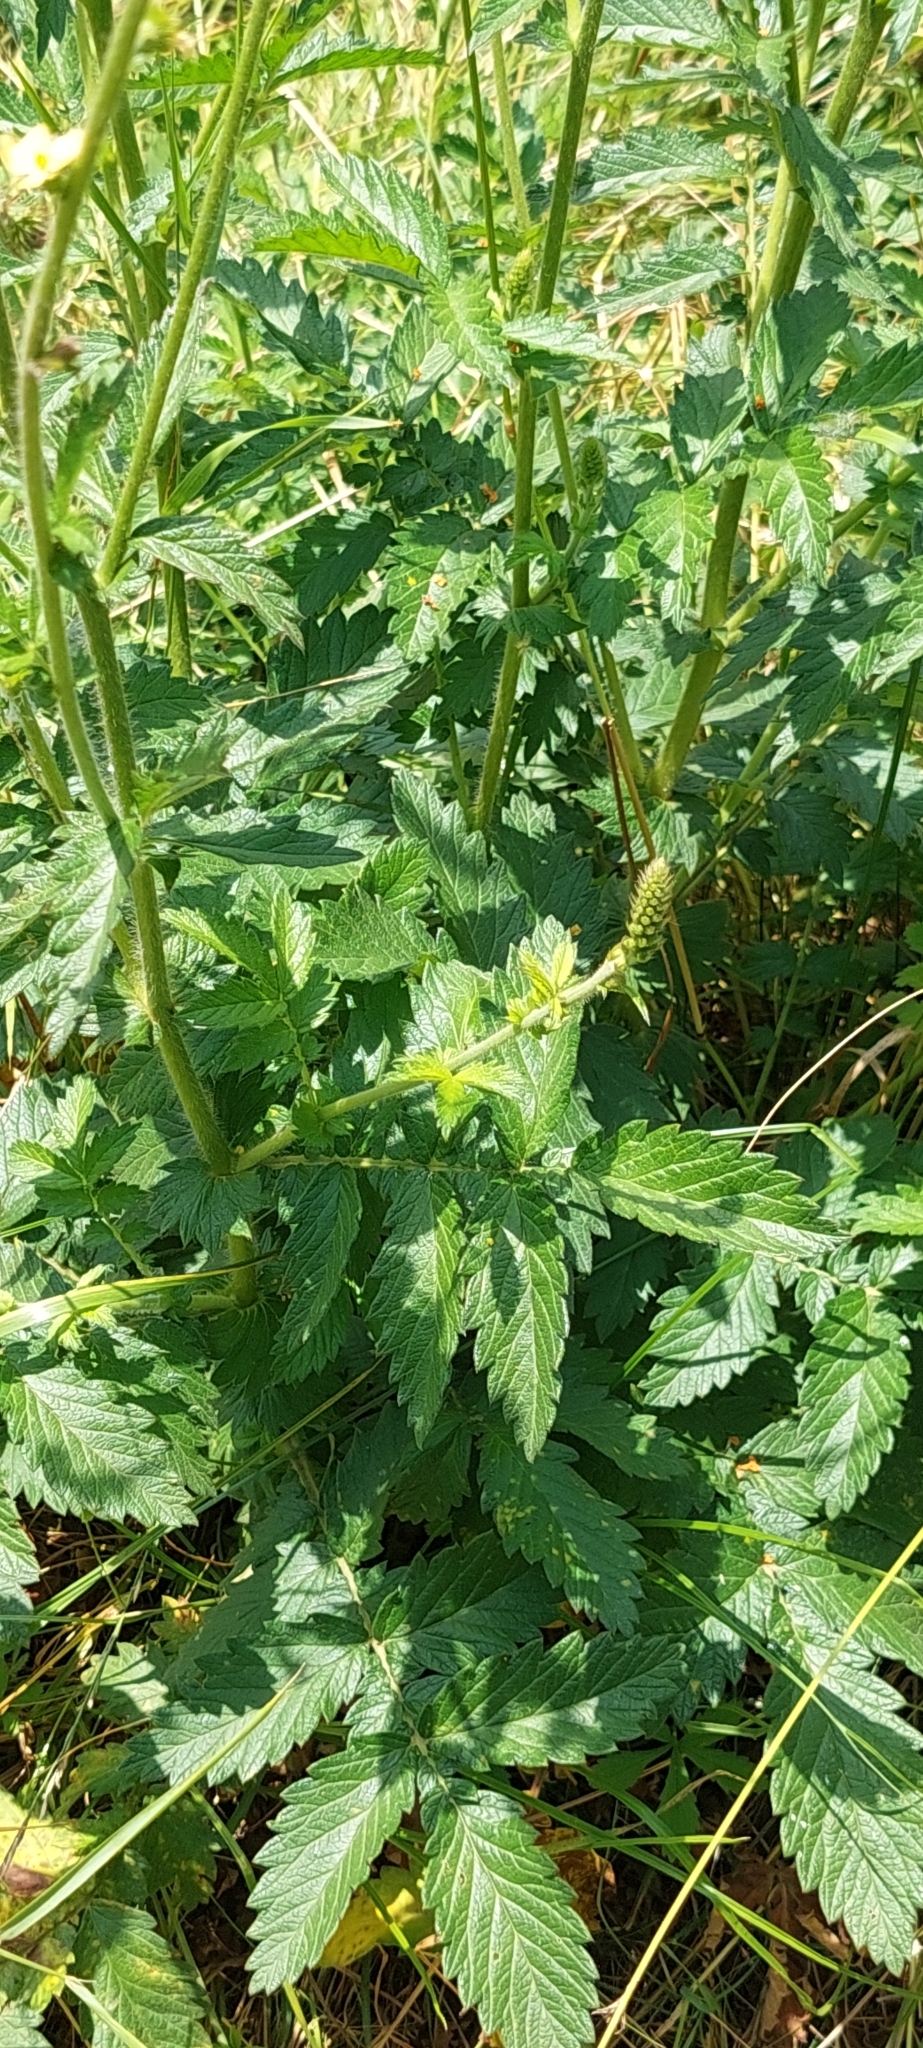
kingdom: Plantae
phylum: Tracheophyta
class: Magnoliopsida
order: Rosales
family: Rosaceae
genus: Agrimonia
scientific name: Agrimonia eupatoria
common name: Agrimony
